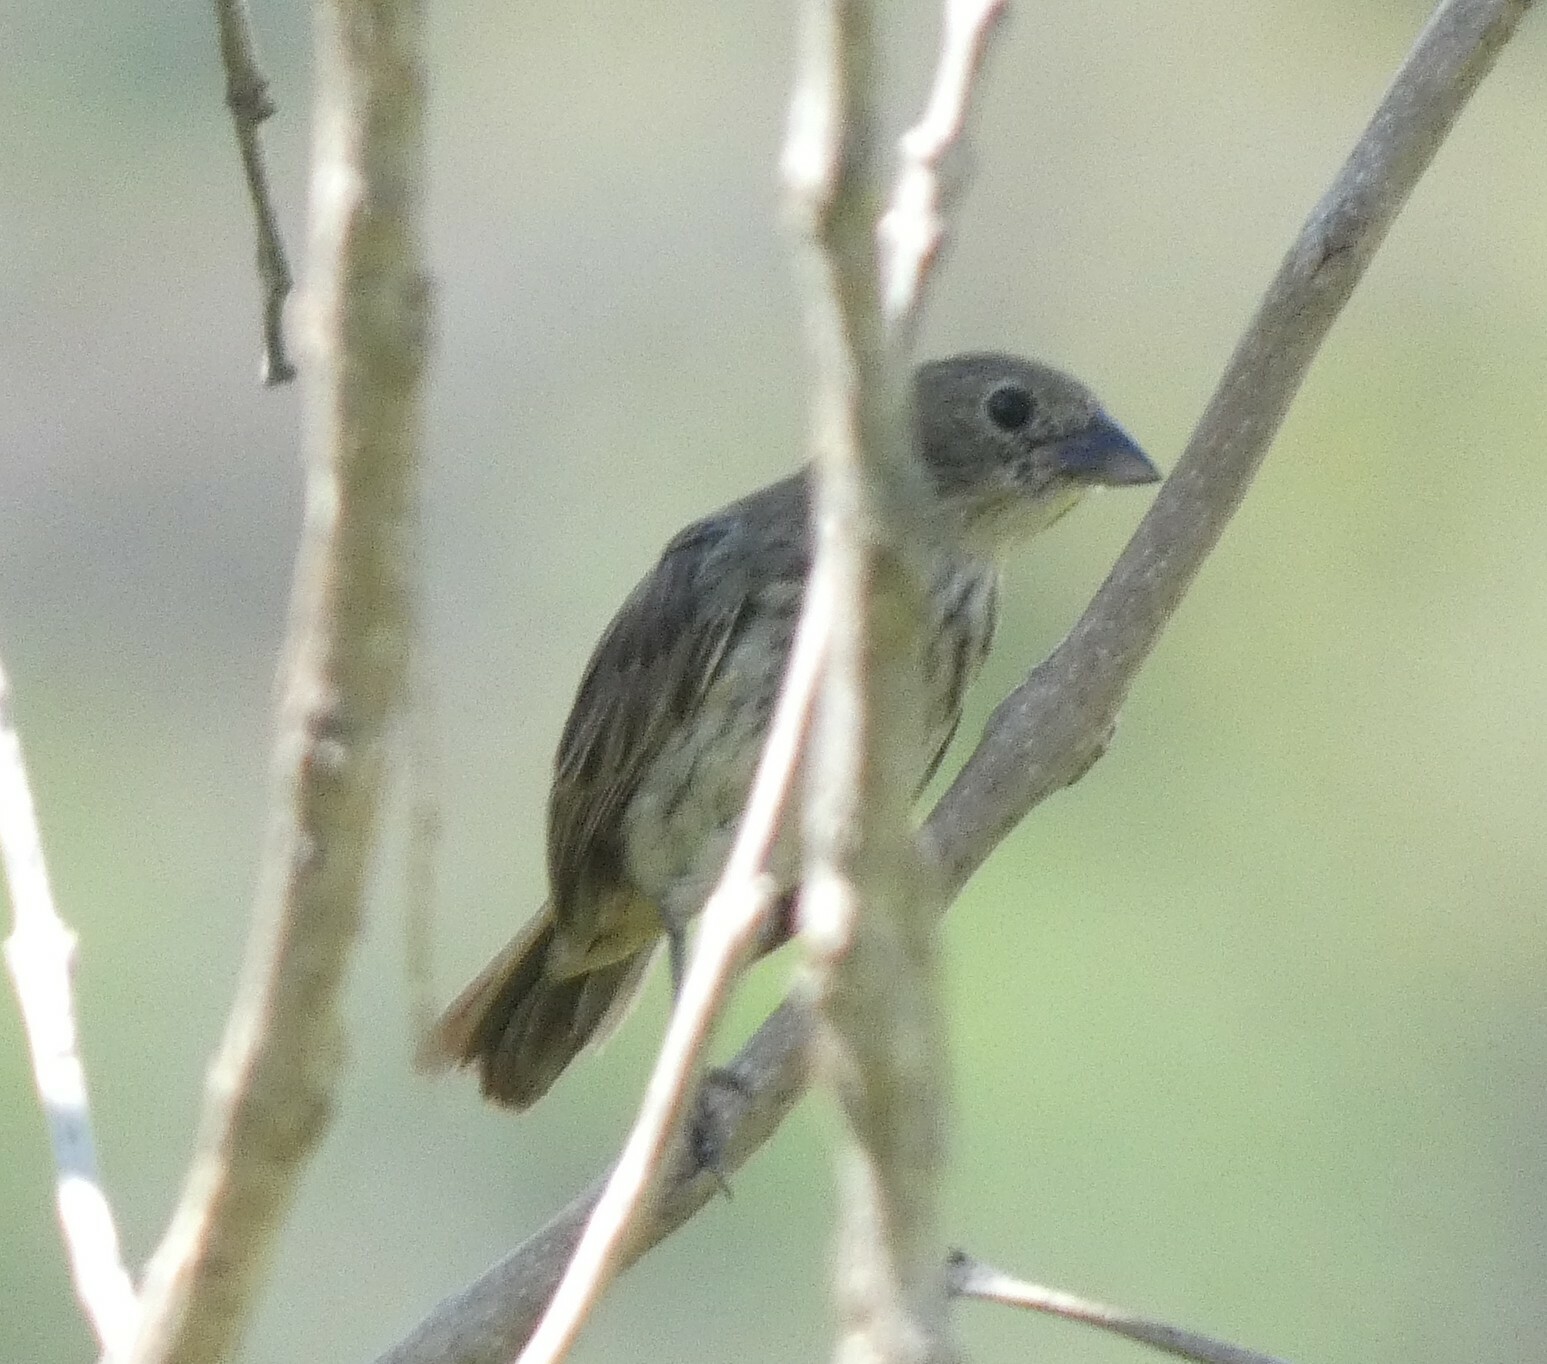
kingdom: Animalia
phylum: Chordata
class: Aves
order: Passeriformes
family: Thraupidae
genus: Volatinia
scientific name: Volatinia jacarina
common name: Blue-black grassquit
